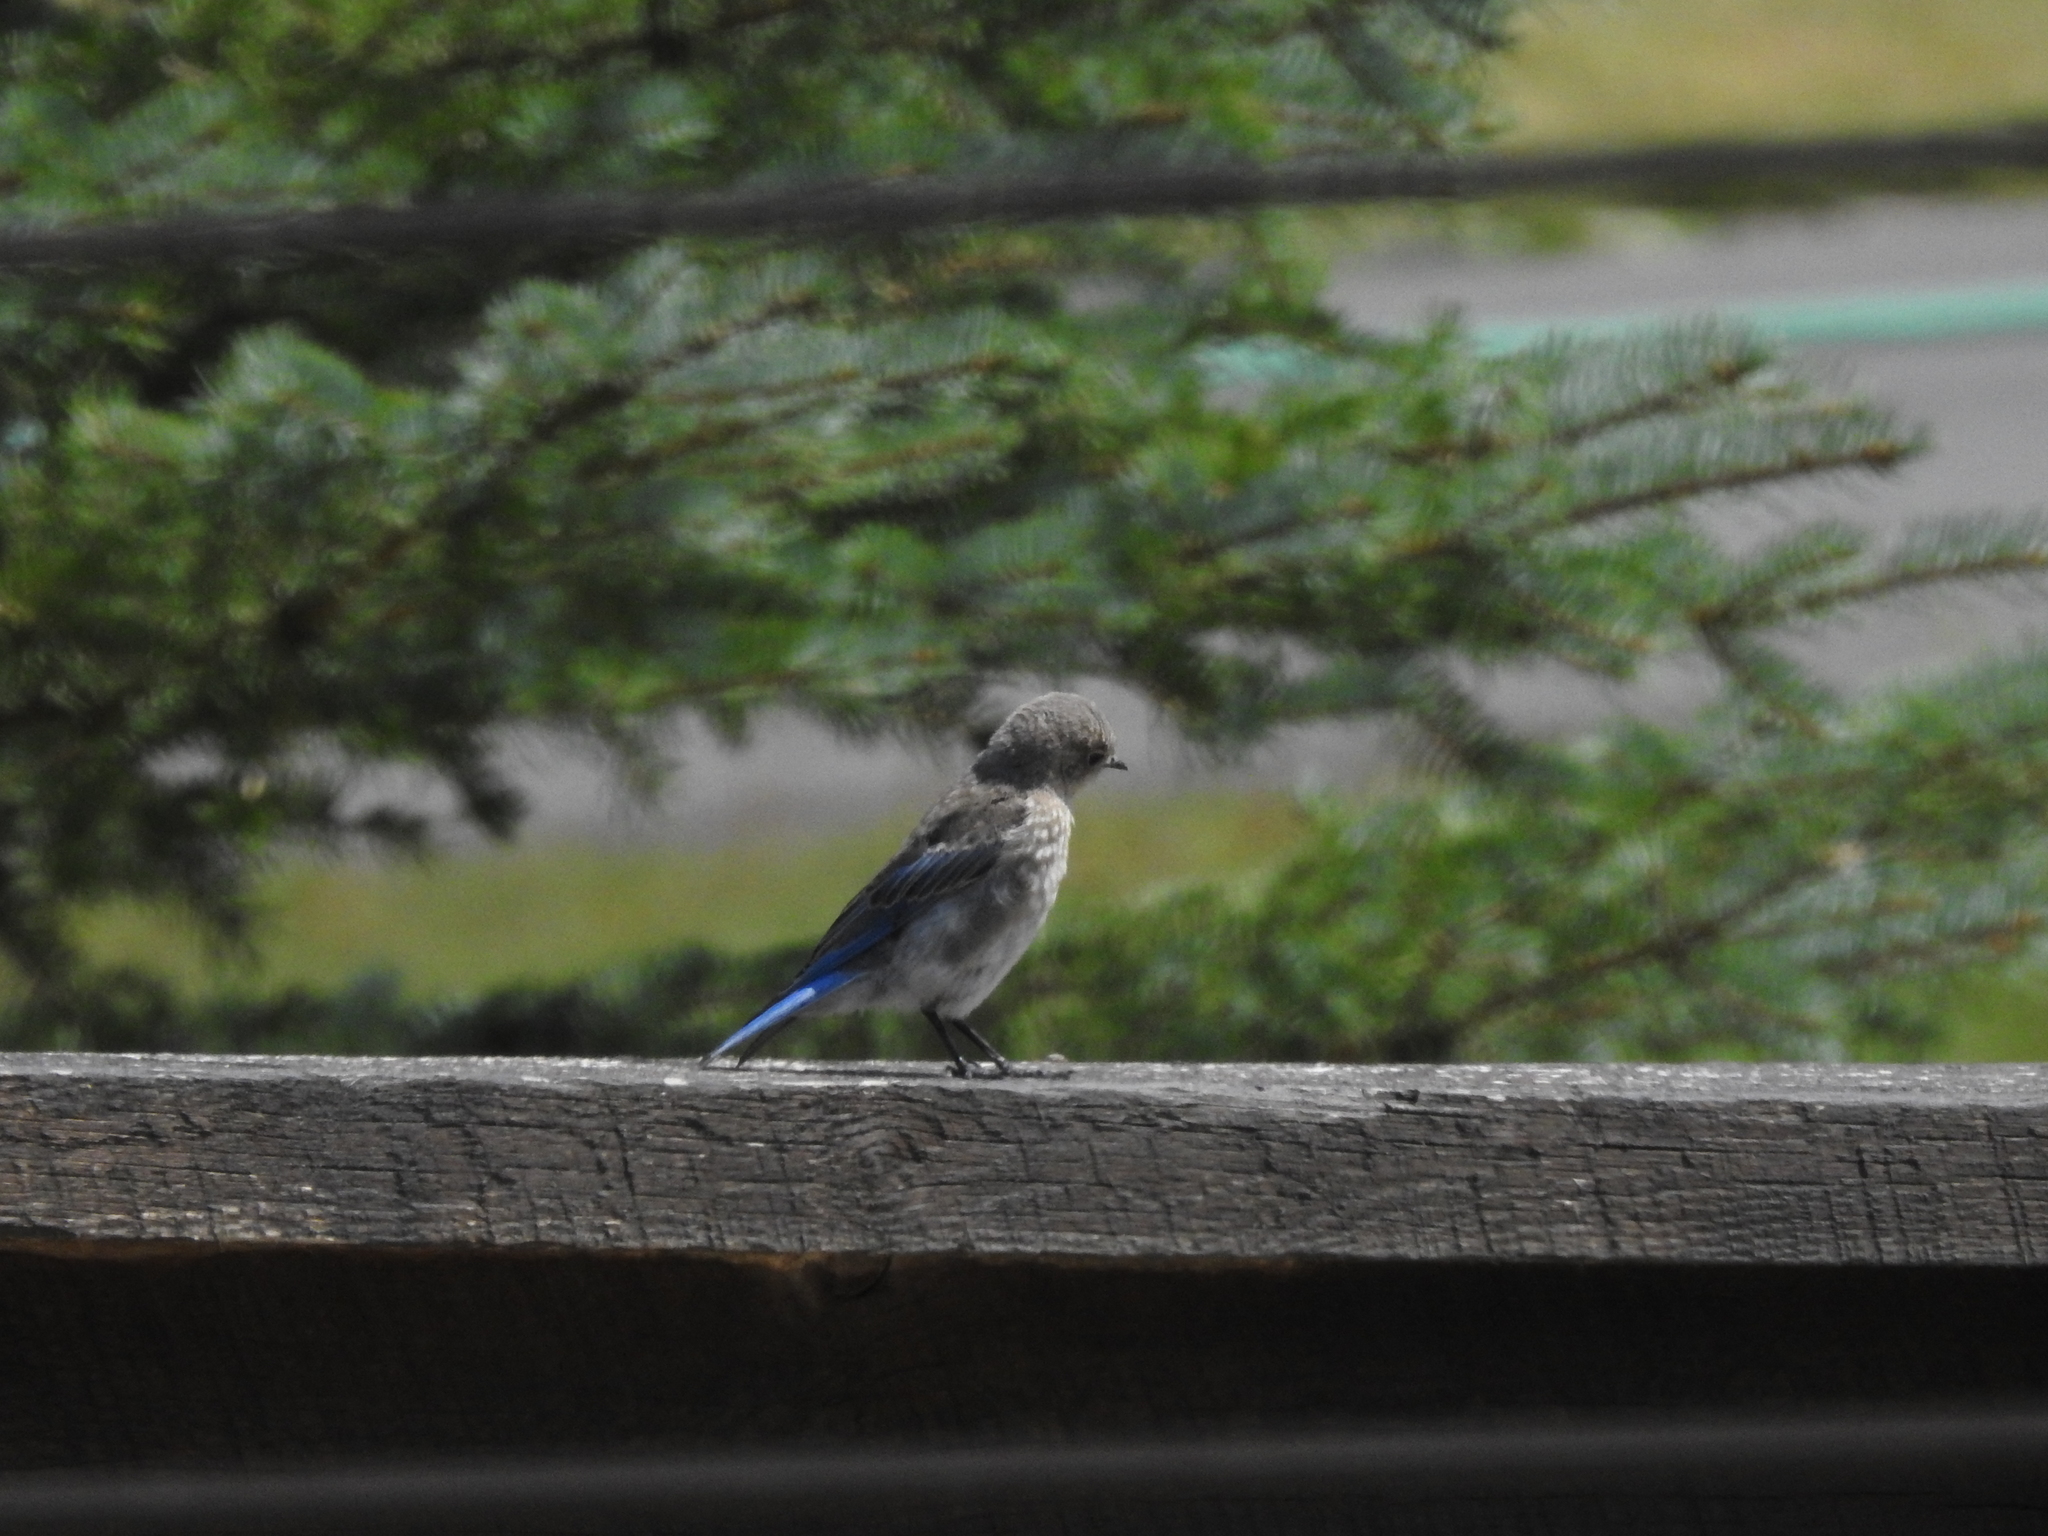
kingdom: Animalia
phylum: Chordata
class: Aves
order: Passeriformes
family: Turdidae
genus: Sialia
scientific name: Sialia currucoides
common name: Mountain bluebird
